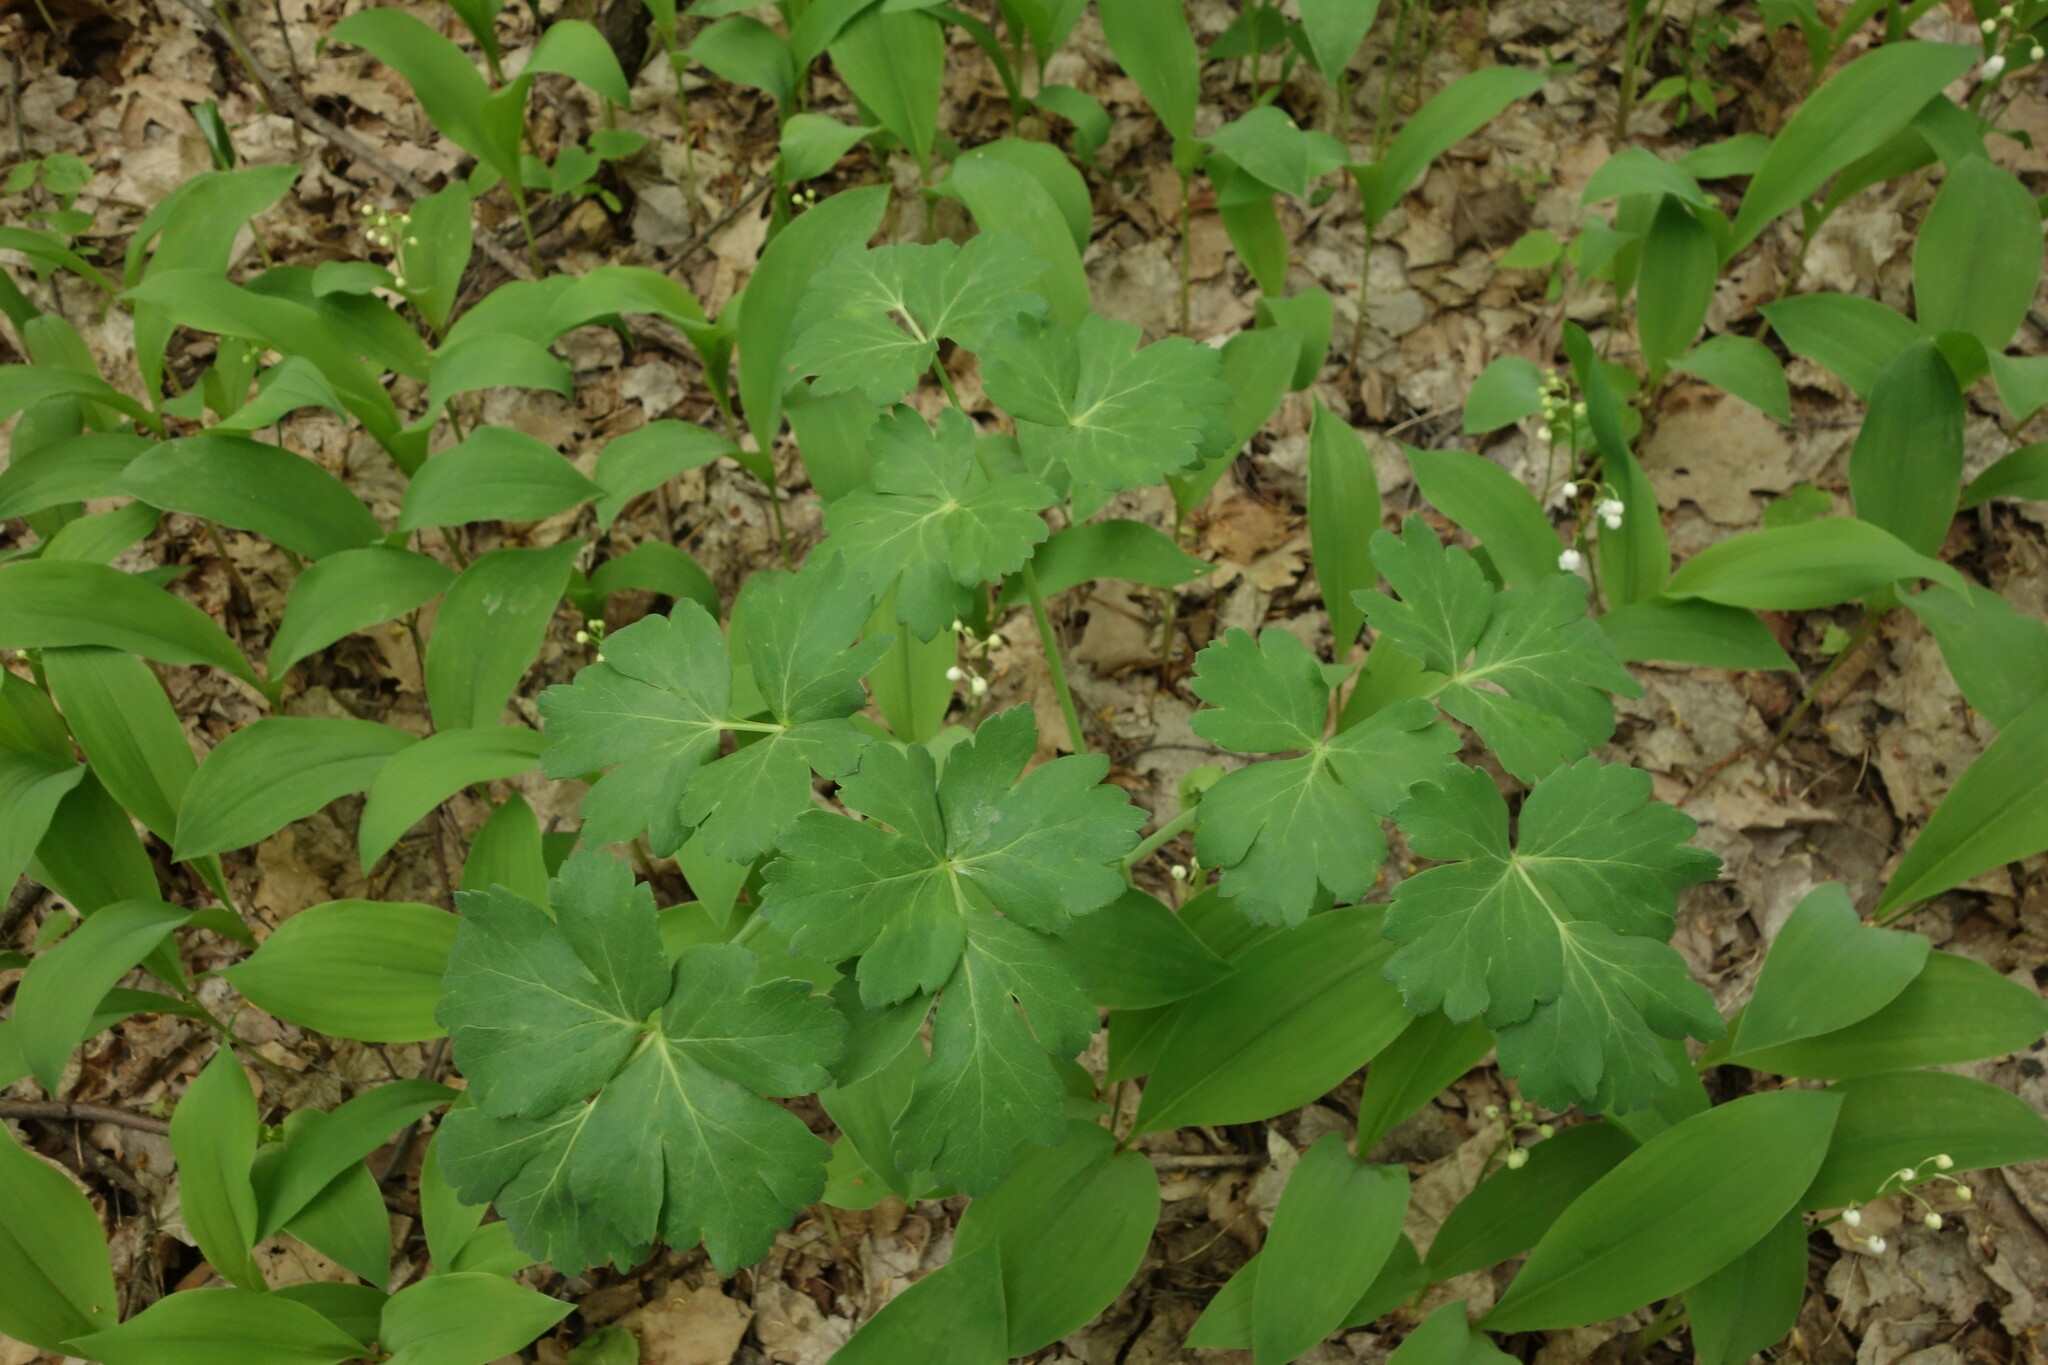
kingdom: Plantae
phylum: Tracheophyta
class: Magnoliopsida
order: Apiales
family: Apiaceae
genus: Laser
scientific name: Laser trilobum
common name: Laser
